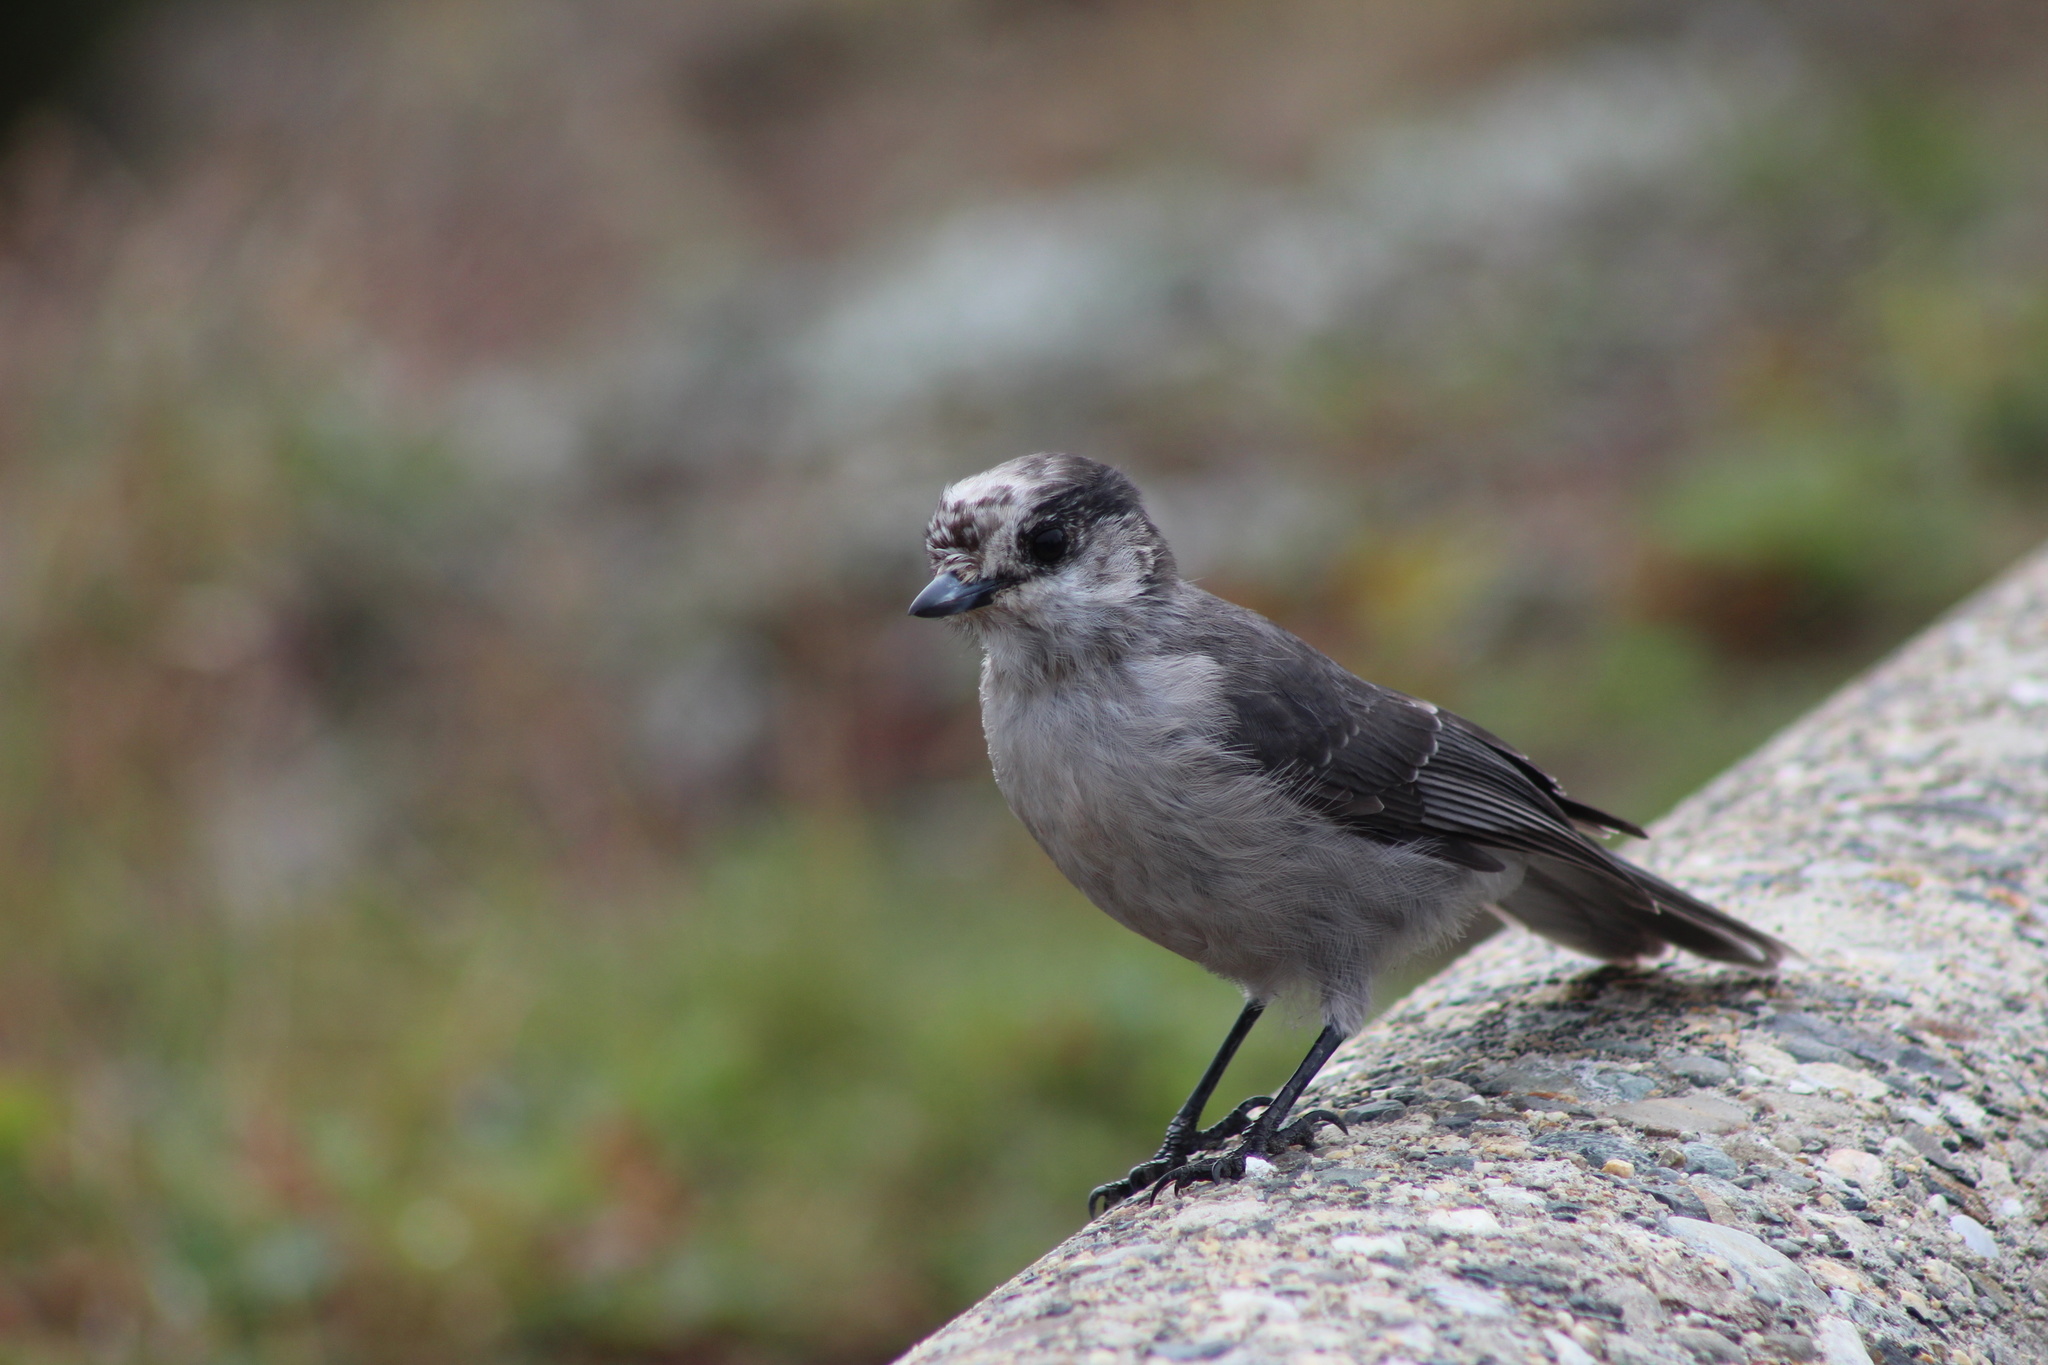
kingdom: Animalia
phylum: Chordata
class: Aves
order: Passeriformes
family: Corvidae
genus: Perisoreus
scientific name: Perisoreus canadensis
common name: Gray jay
